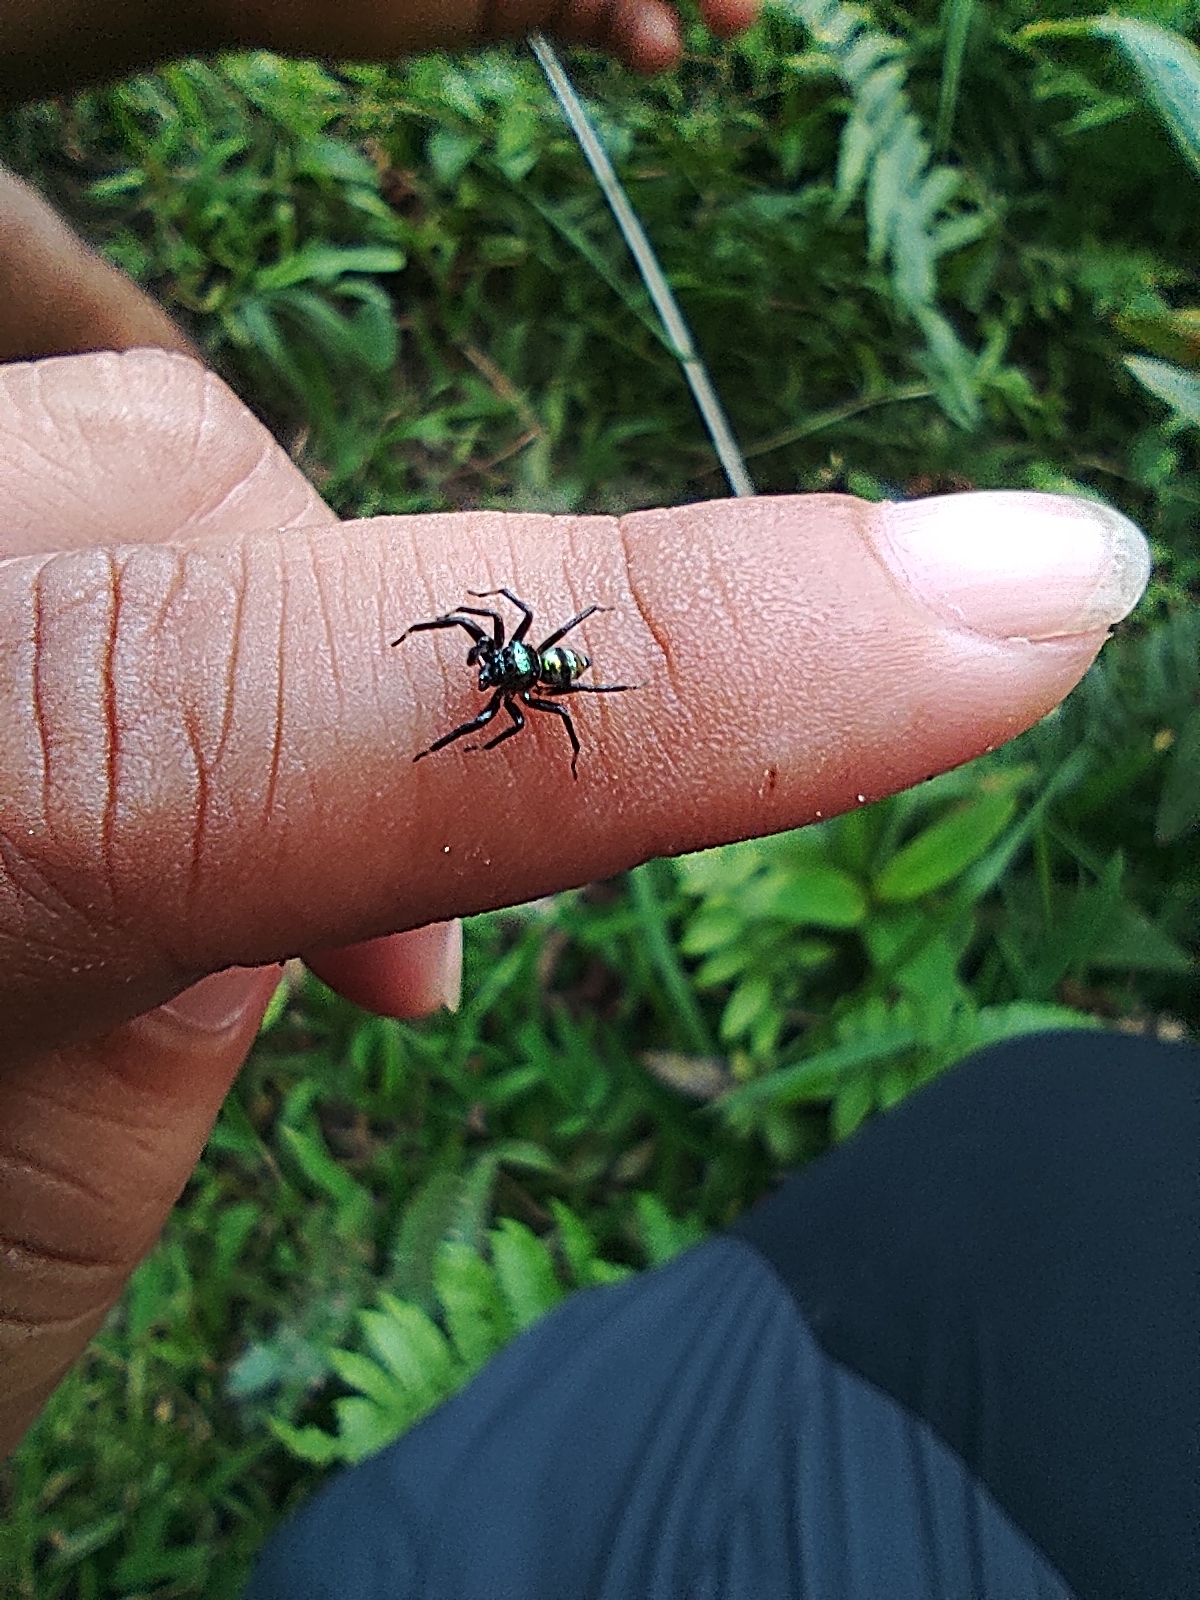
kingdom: Animalia
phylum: Arthropoda
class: Arachnida
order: Araneae
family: Salticidae
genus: Phintella
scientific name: Phintella vittata
